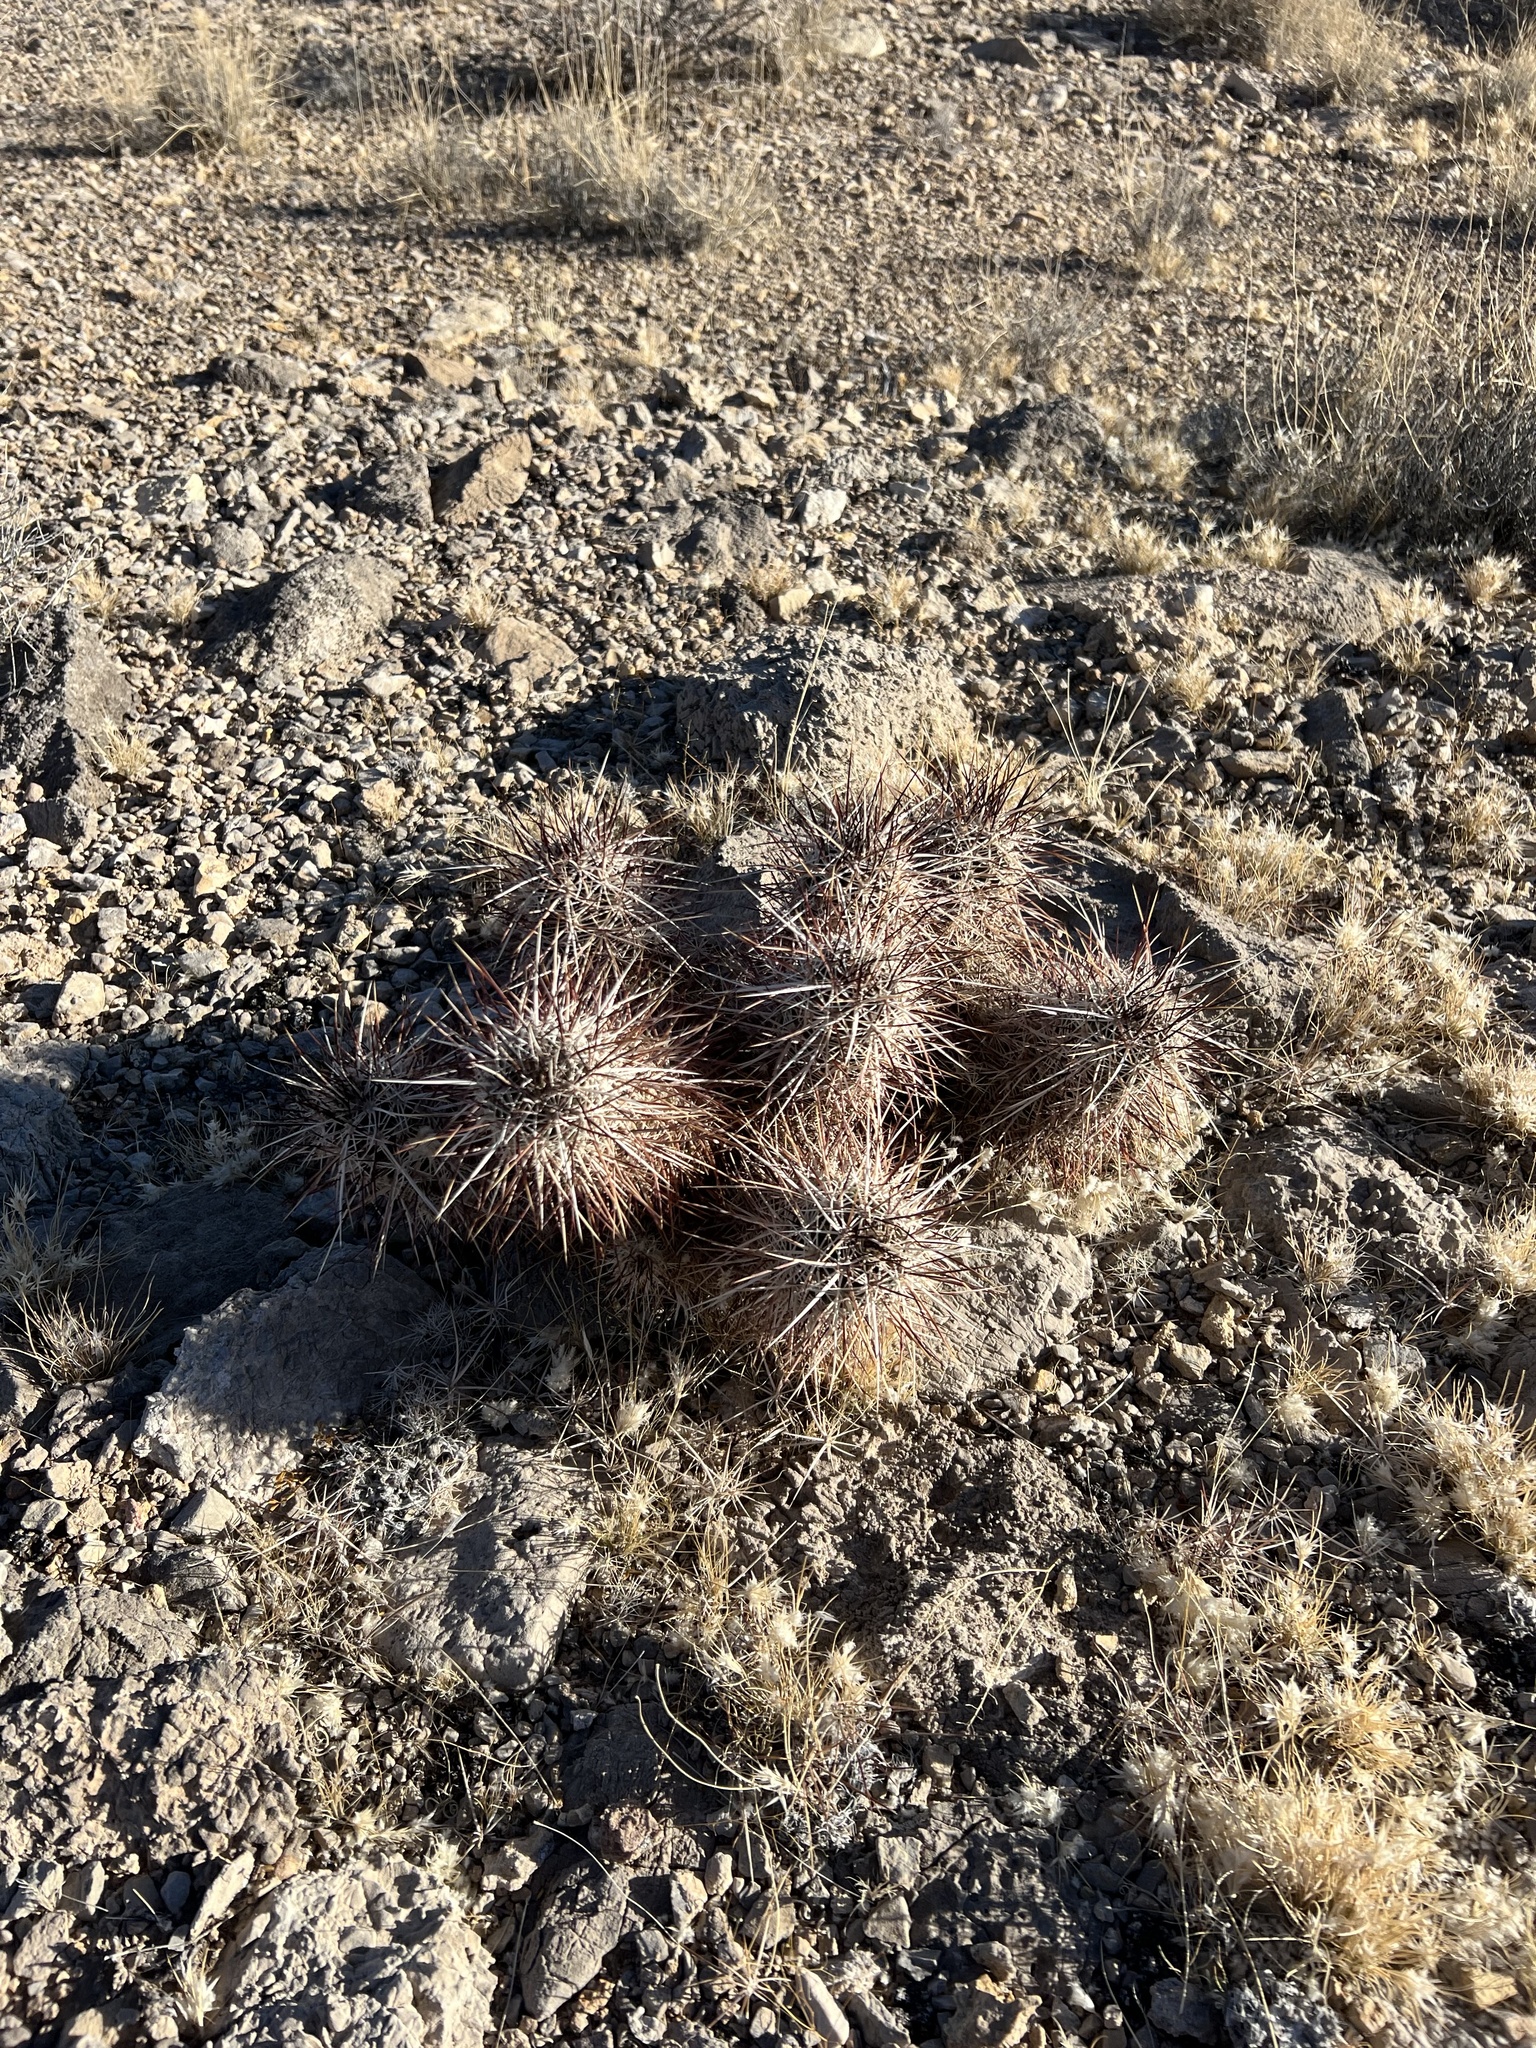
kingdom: Plantae
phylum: Tracheophyta
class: Magnoliopsida
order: Caryophyllales
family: Cactaceae
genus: Echinocereus
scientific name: Echinocereus engelmannii
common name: Engelmann's hedgehog cactus
